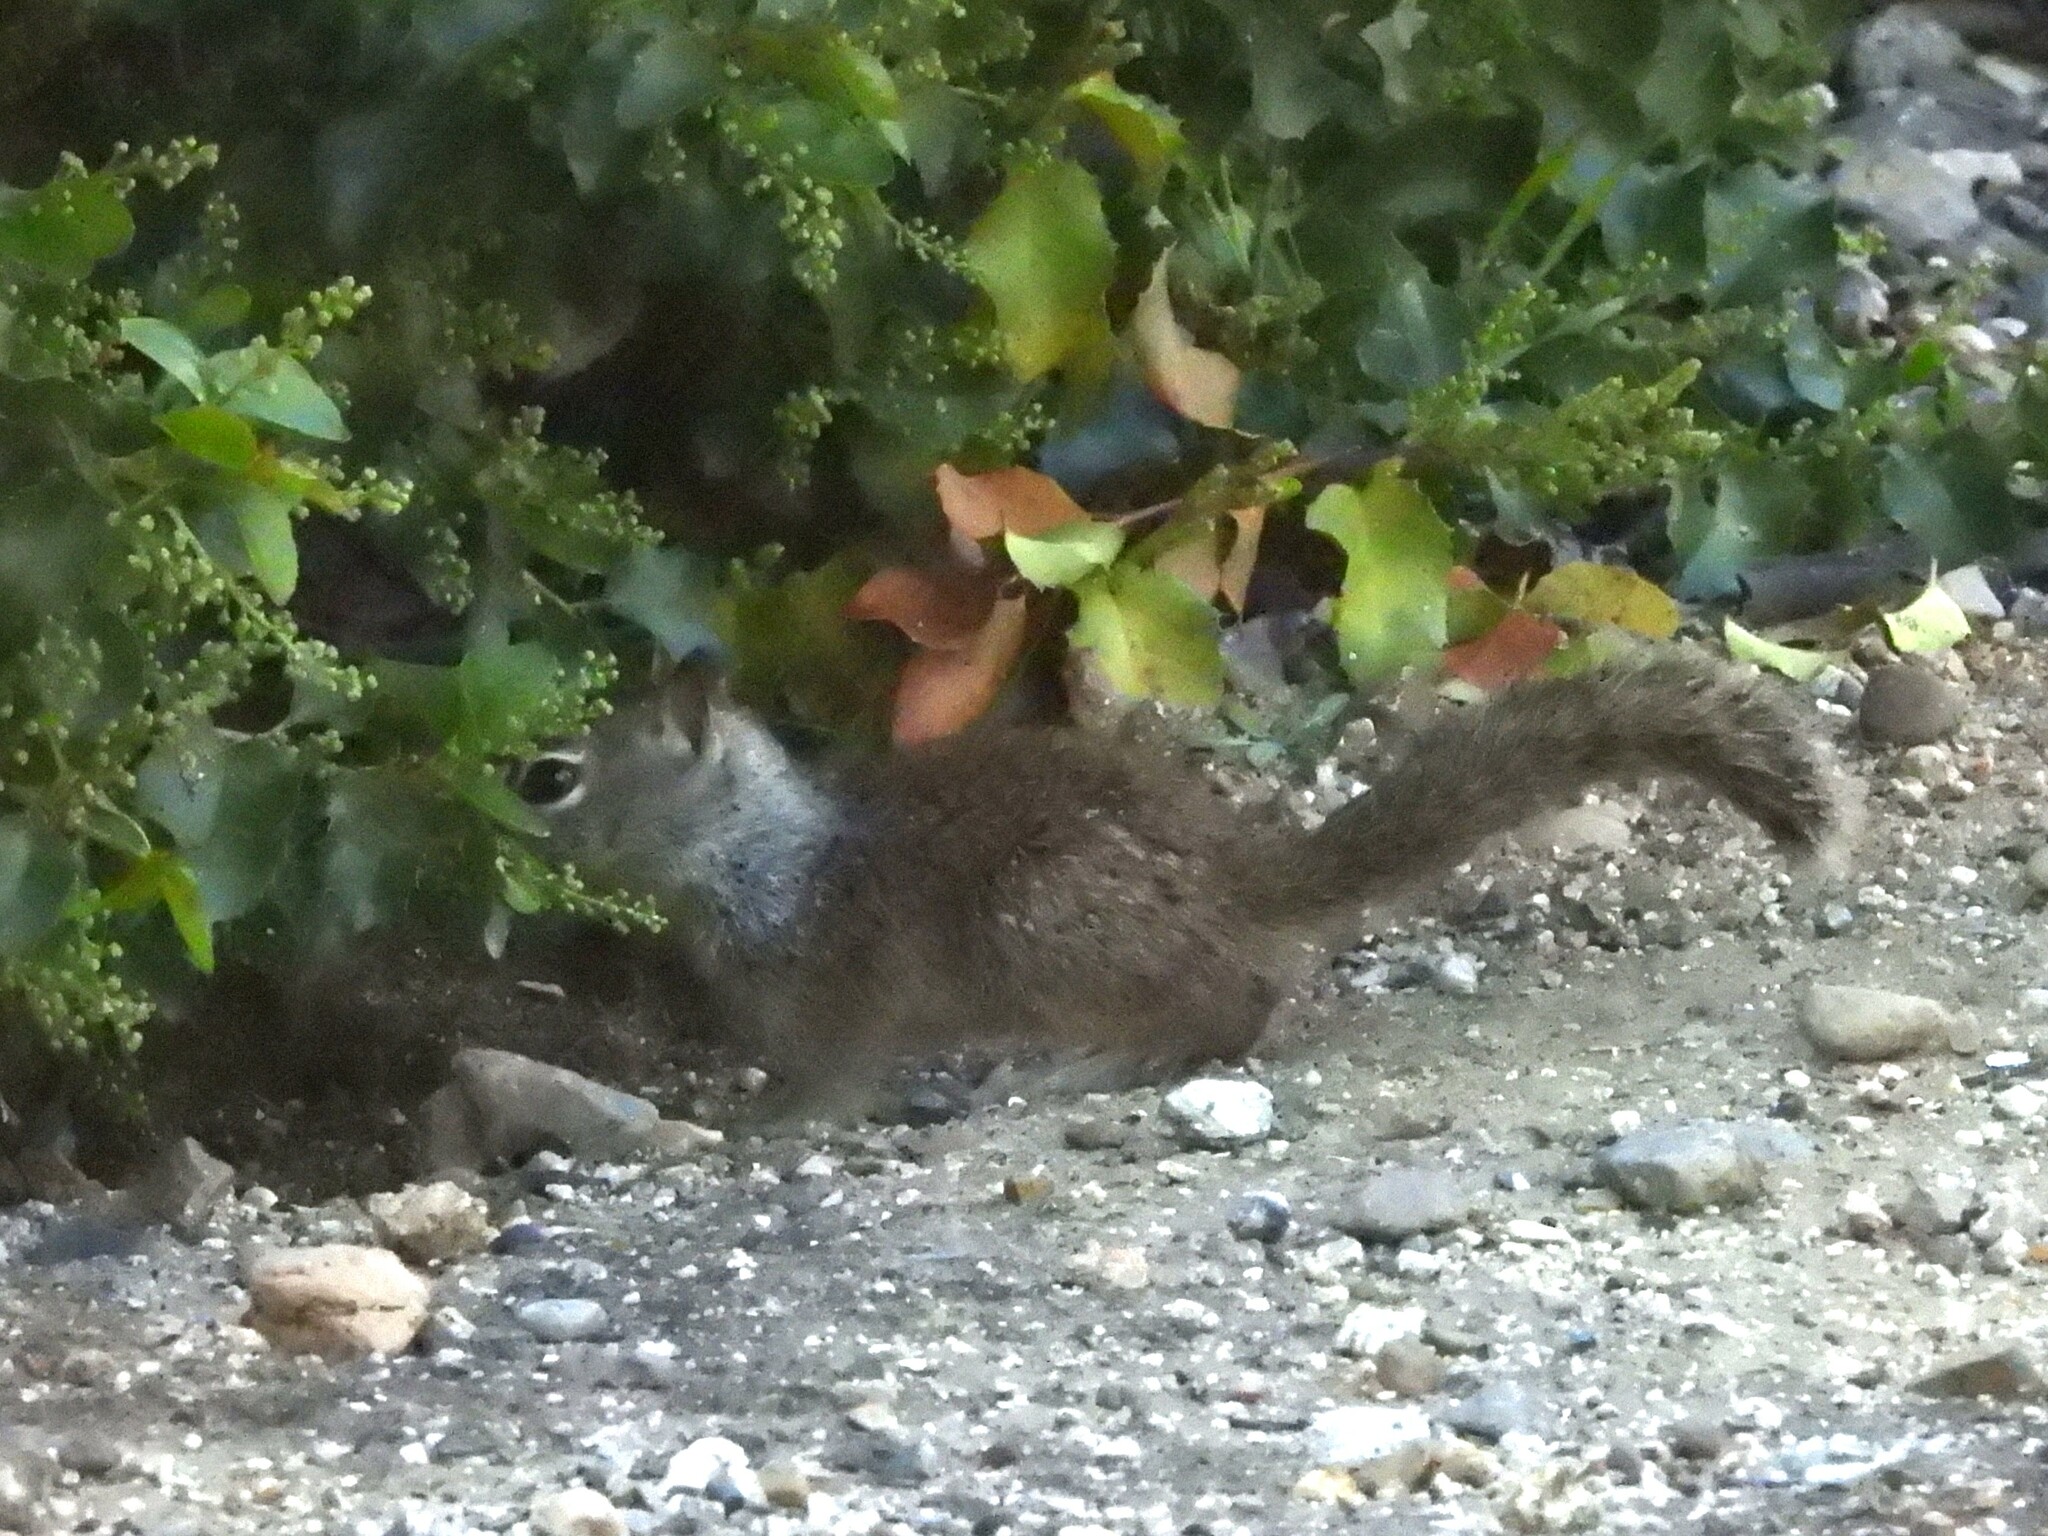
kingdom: Animalia
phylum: Chordata
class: Mammalia
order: Rodentia
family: Sciuridae
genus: Otospermophilus
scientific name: Otospermophilus beecheyi
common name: California ground squirrel
